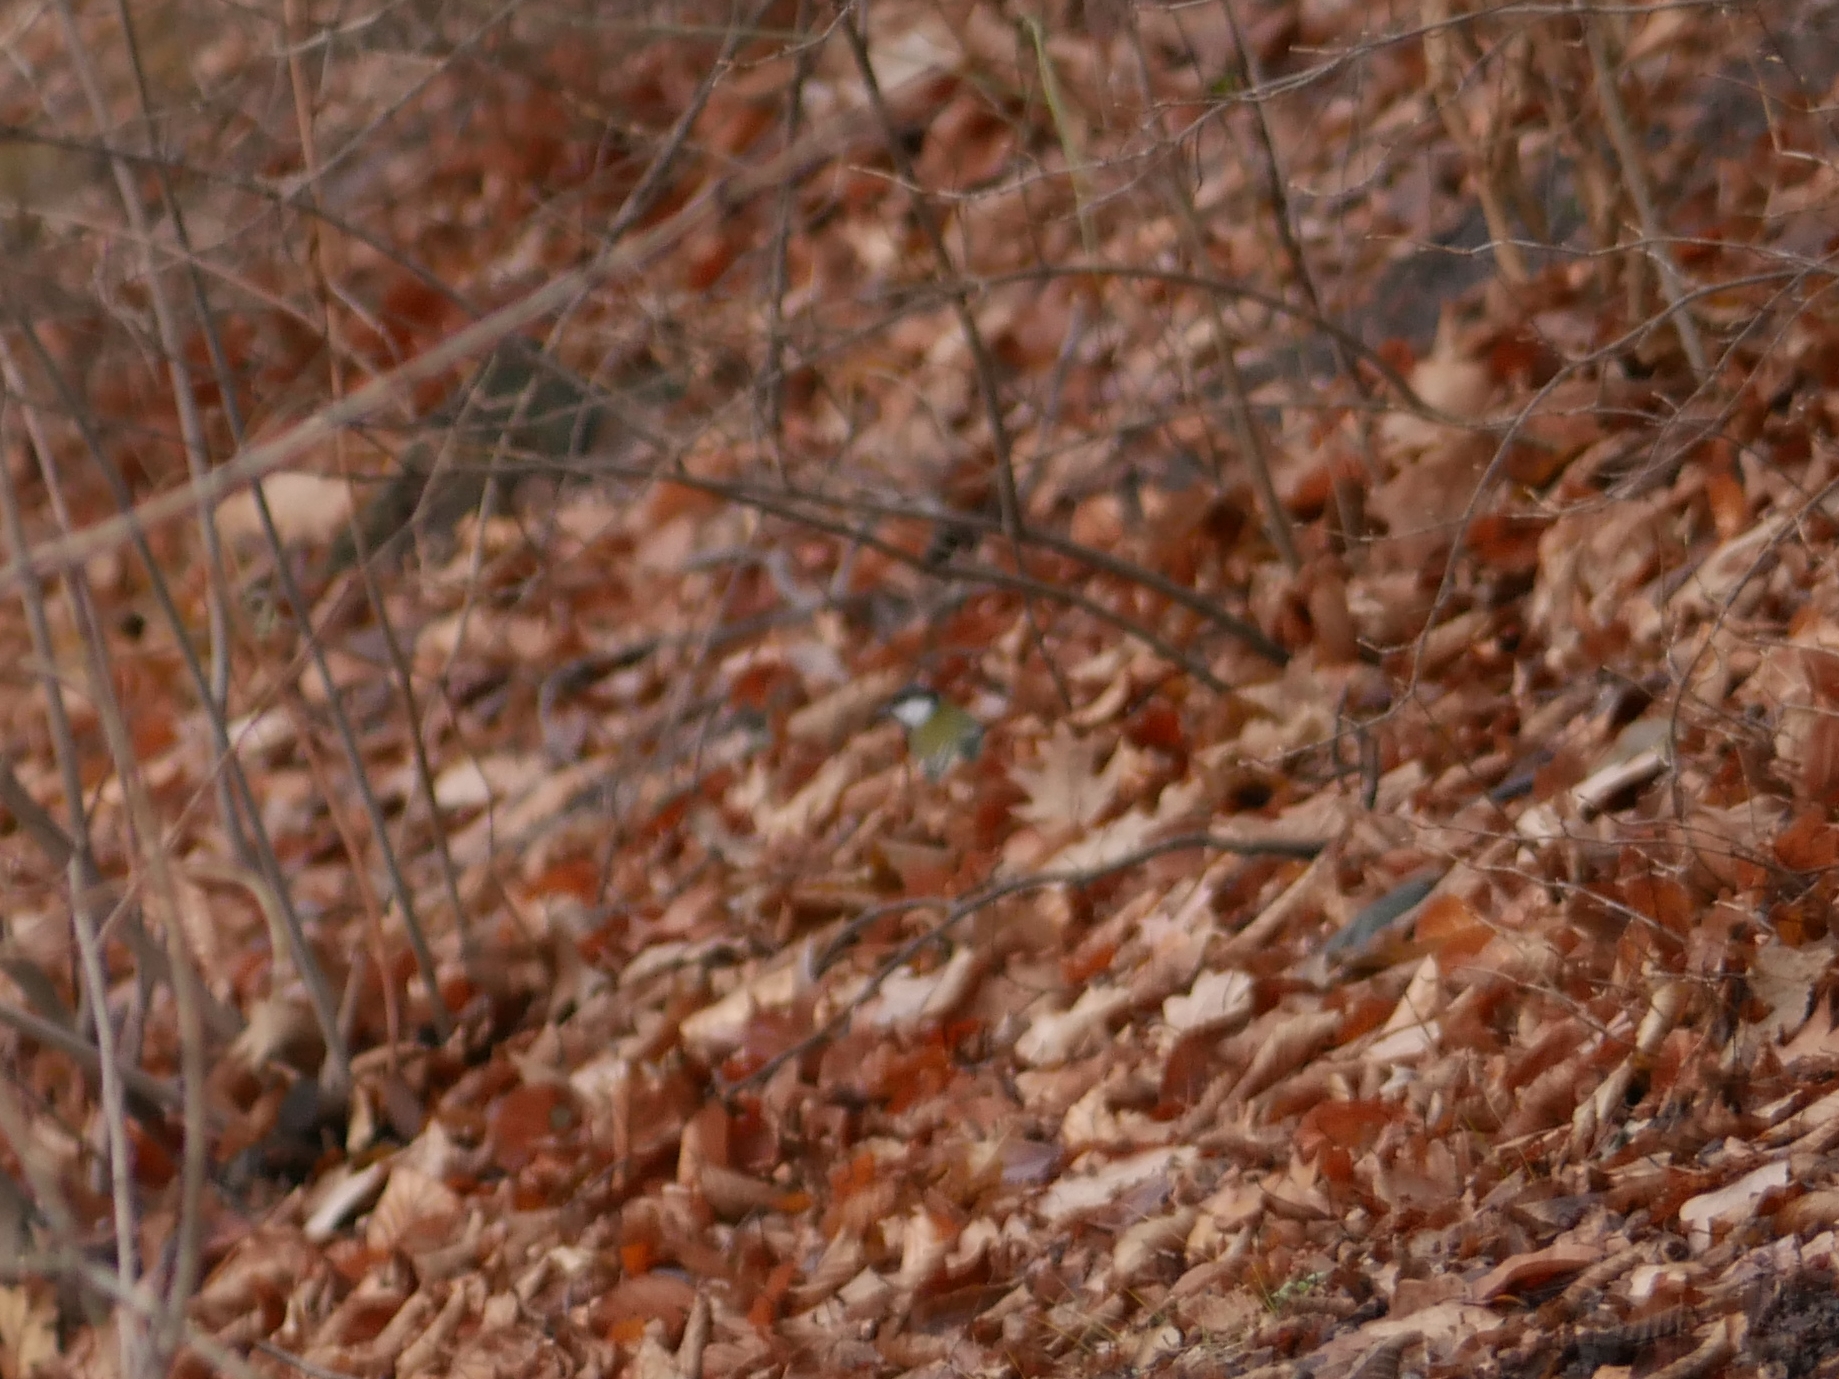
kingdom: Animalia
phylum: Chordata
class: Aves
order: Passeriformes
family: Paridae
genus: Parus
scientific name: Parus major
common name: Great tit
